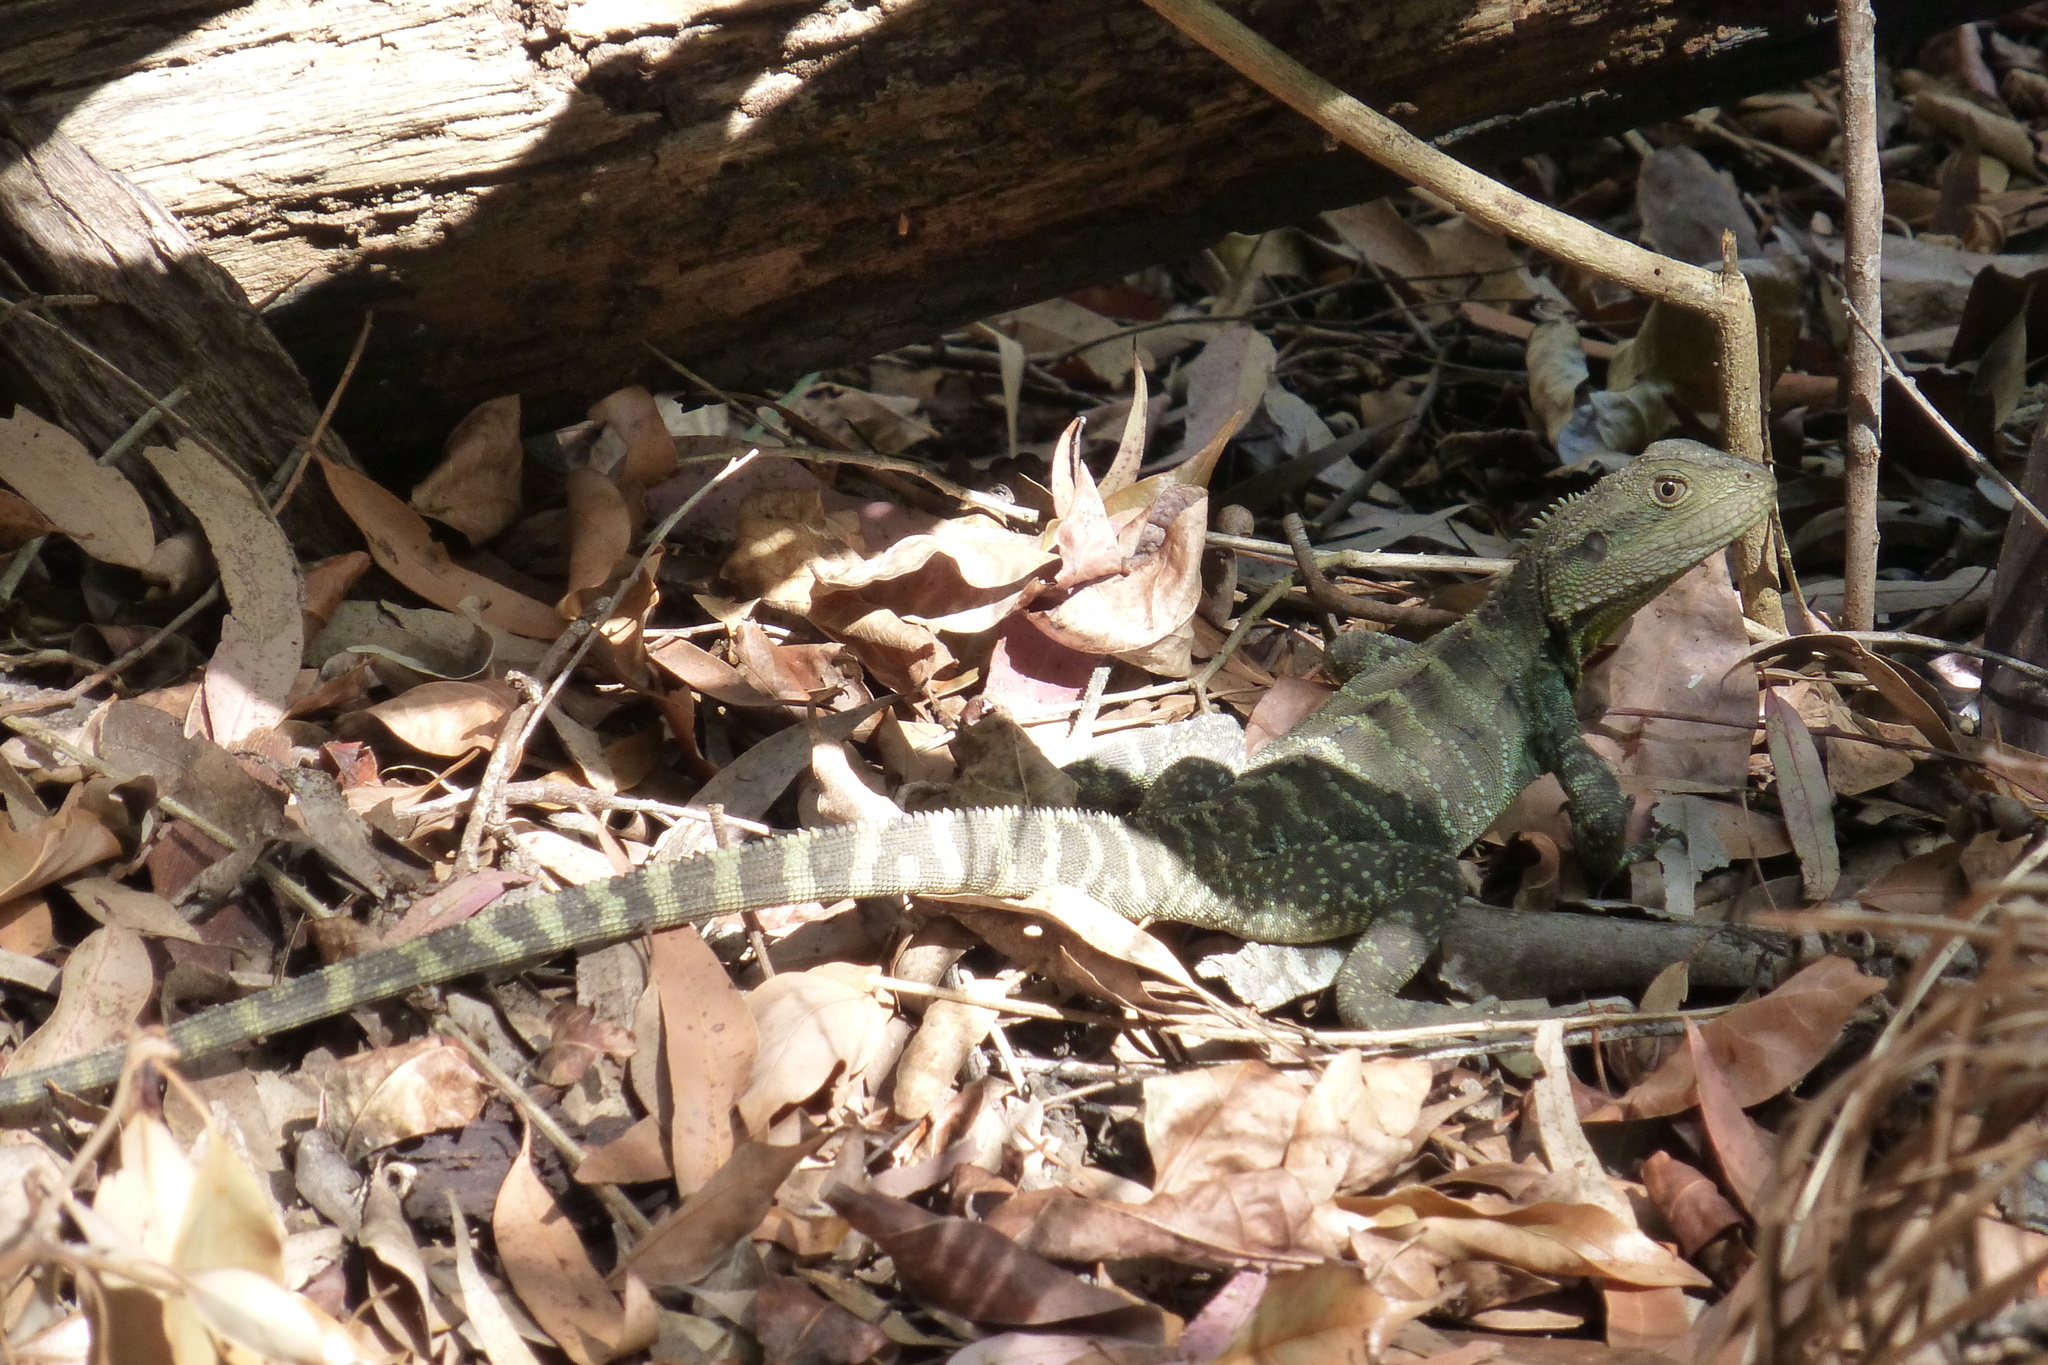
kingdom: Animalia
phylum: Chordata
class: Squamata
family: Agamidae
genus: Intellagama
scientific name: Intellagama lesueurii
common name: Eastern water dragon
